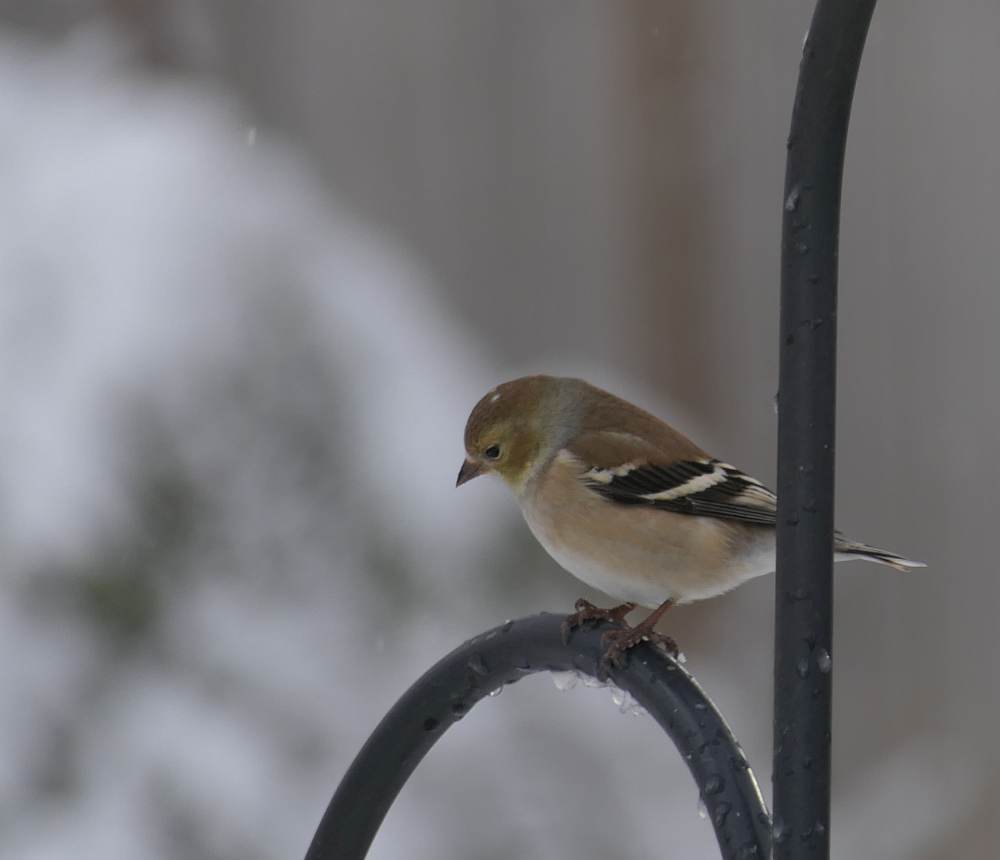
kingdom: Animalia
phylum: Chordata
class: Aves
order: Passeriformes
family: Fringillidae
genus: Spinus
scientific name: Spinus tristis
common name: American goldfinch
